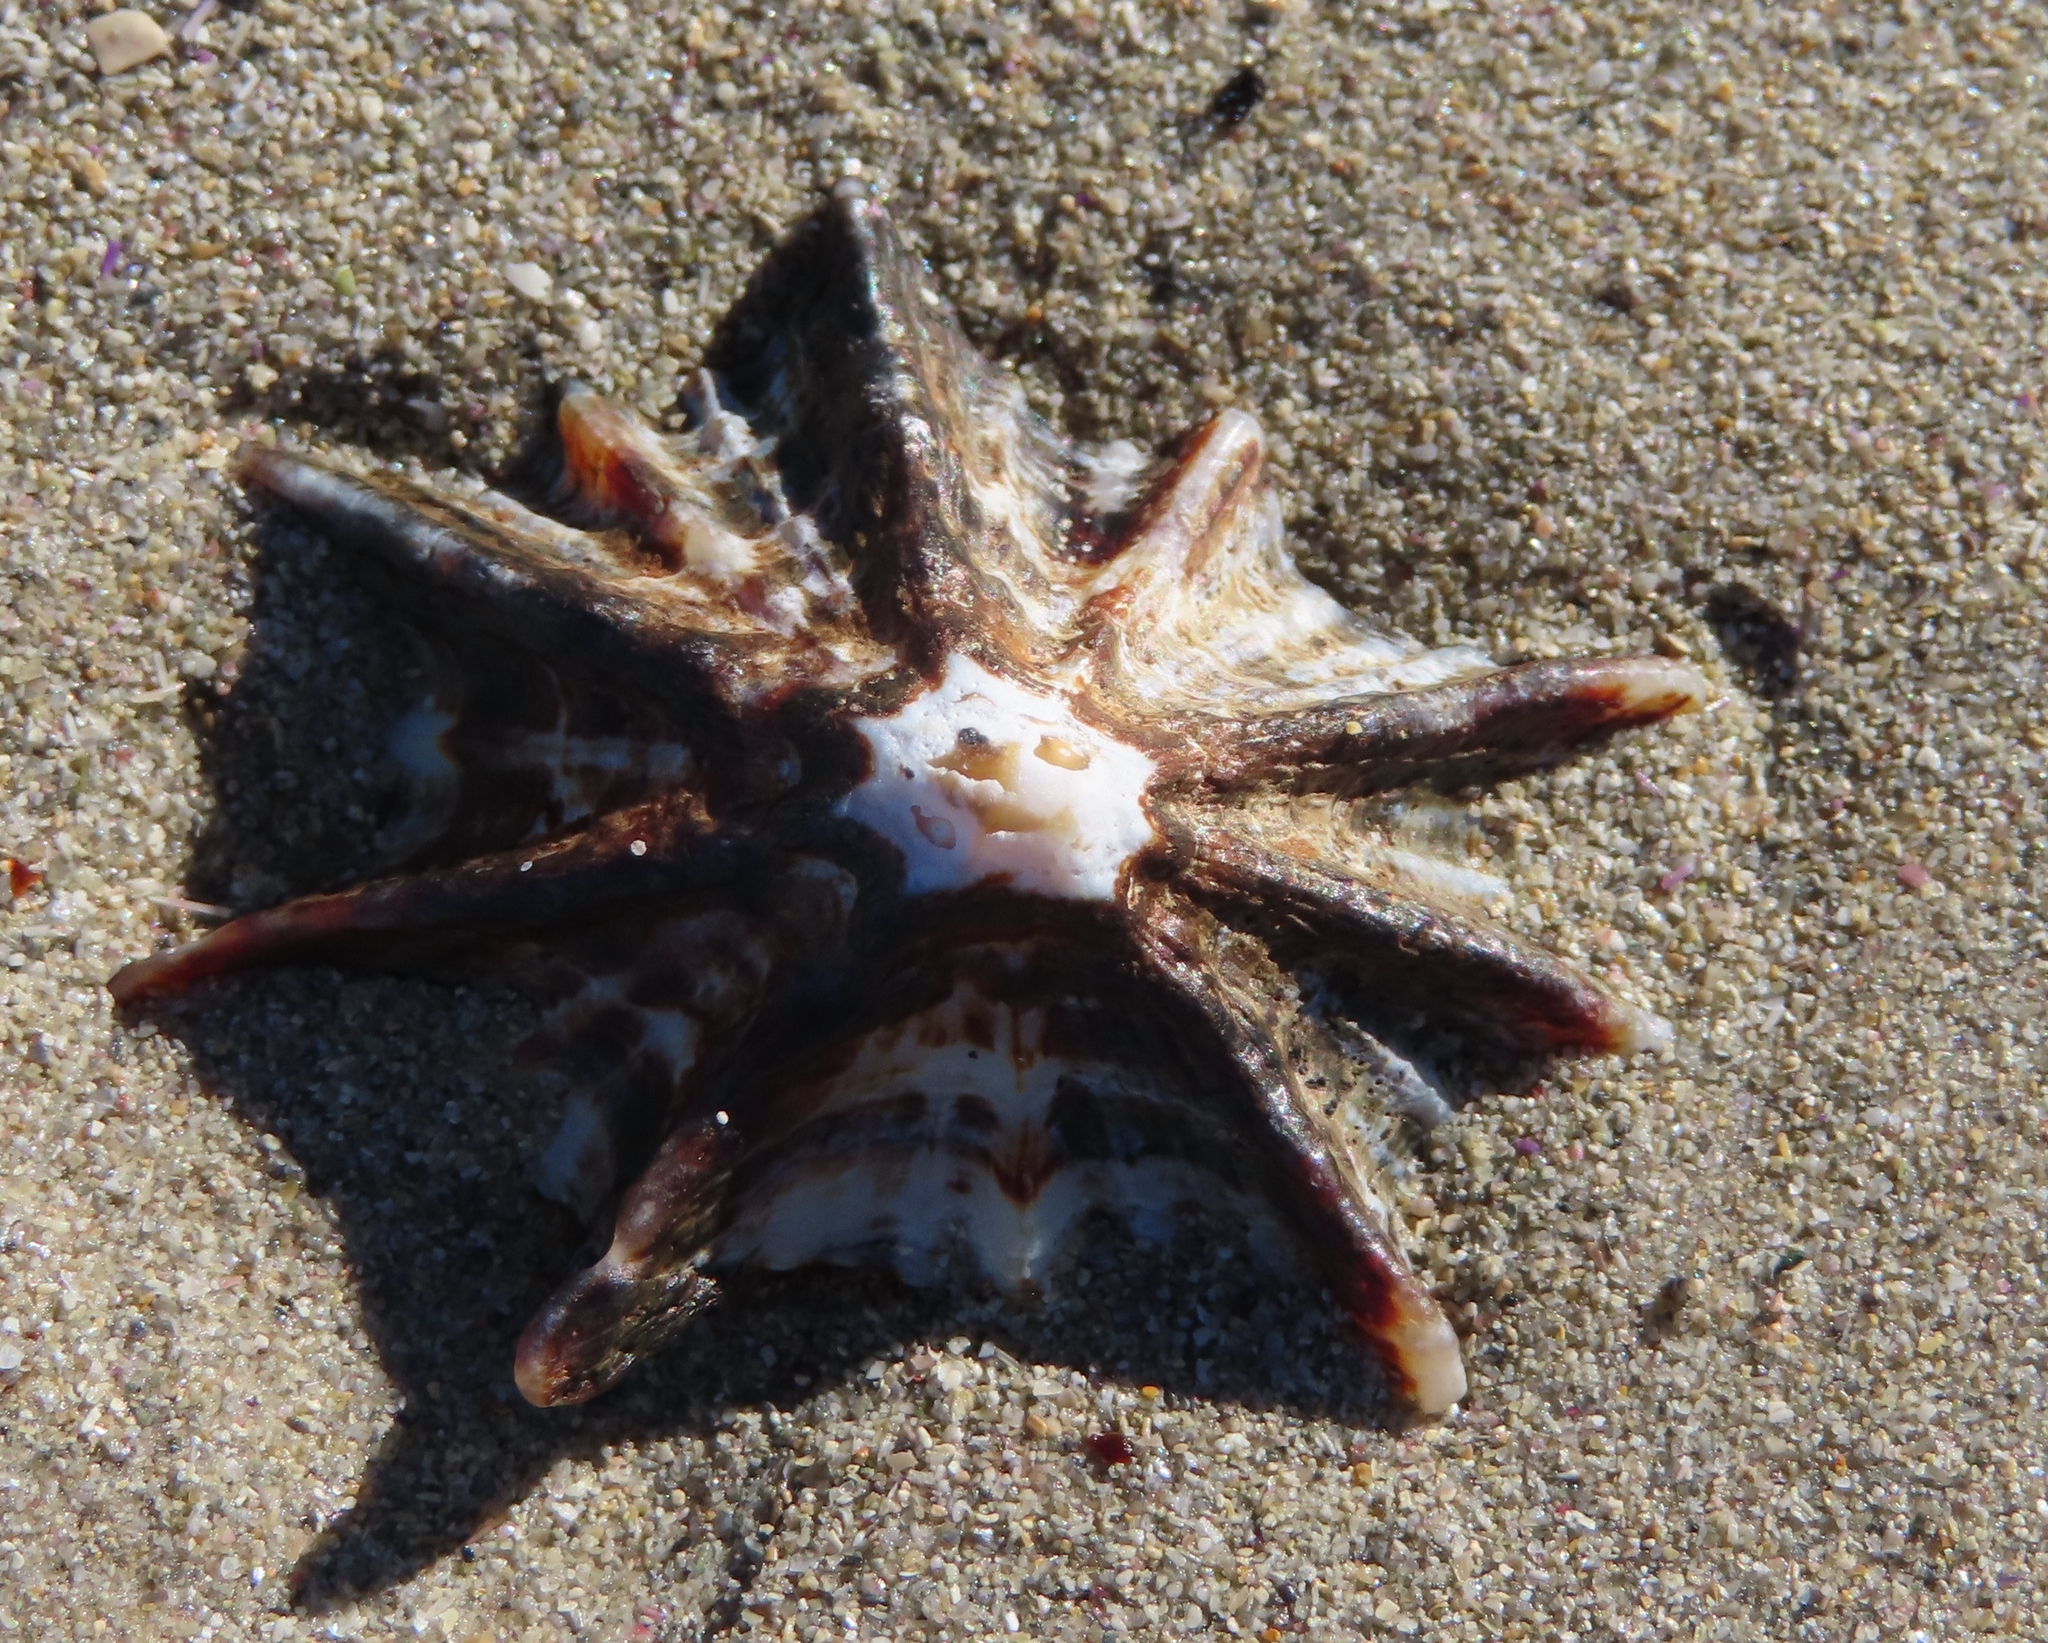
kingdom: Animalia
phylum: Mollusca
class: Gastropoda
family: Patellidae
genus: Scutellastra
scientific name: Scutellastra longicosta
